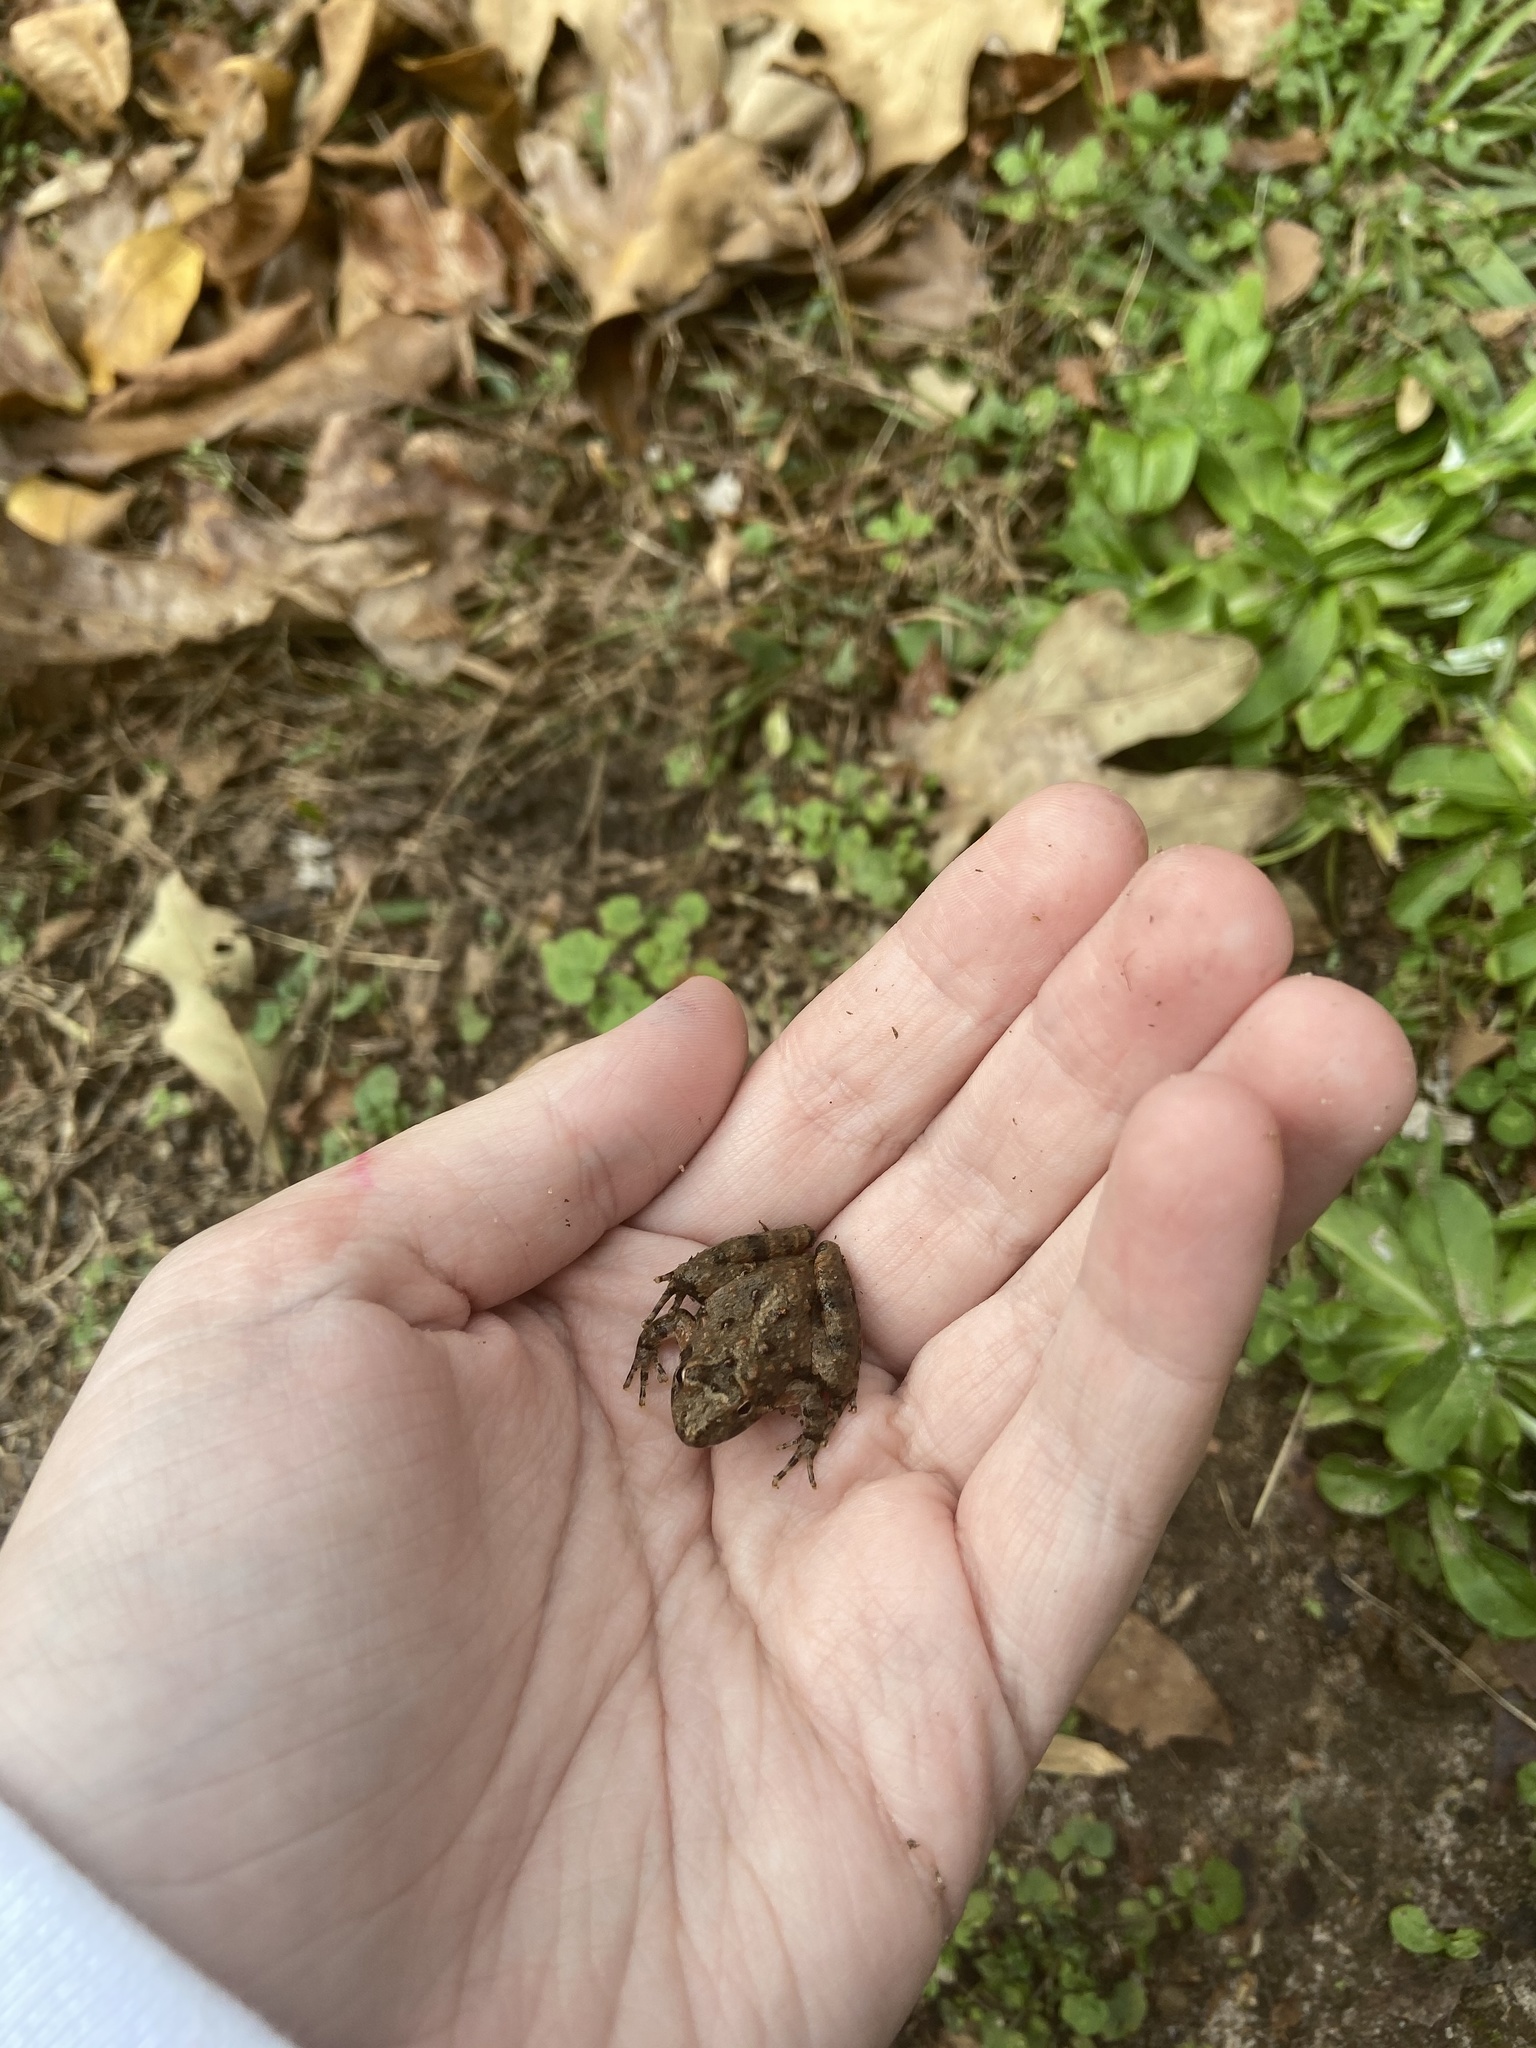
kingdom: Animalia
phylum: Chordata
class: Amphibia
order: Anura
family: Hylidae
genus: Acris
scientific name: Acris crepitans
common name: Northern cricket frog
